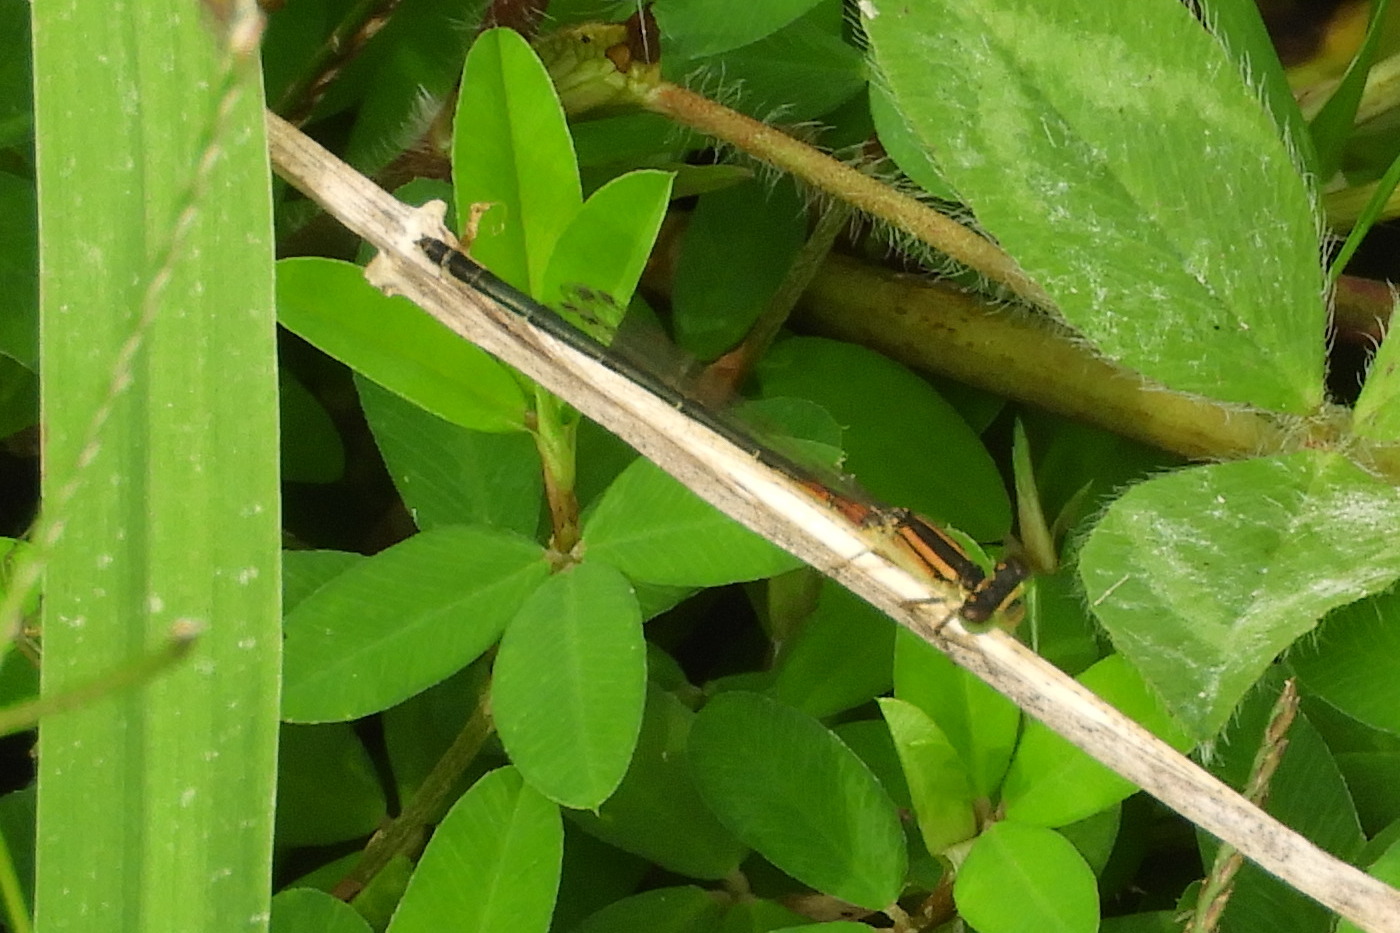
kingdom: Animalia
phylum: Arthropoda
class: Insecta
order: Odonata
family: Coenagrionidae
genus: Ischnura
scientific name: Ischnura verticalis
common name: Eastern forktail
